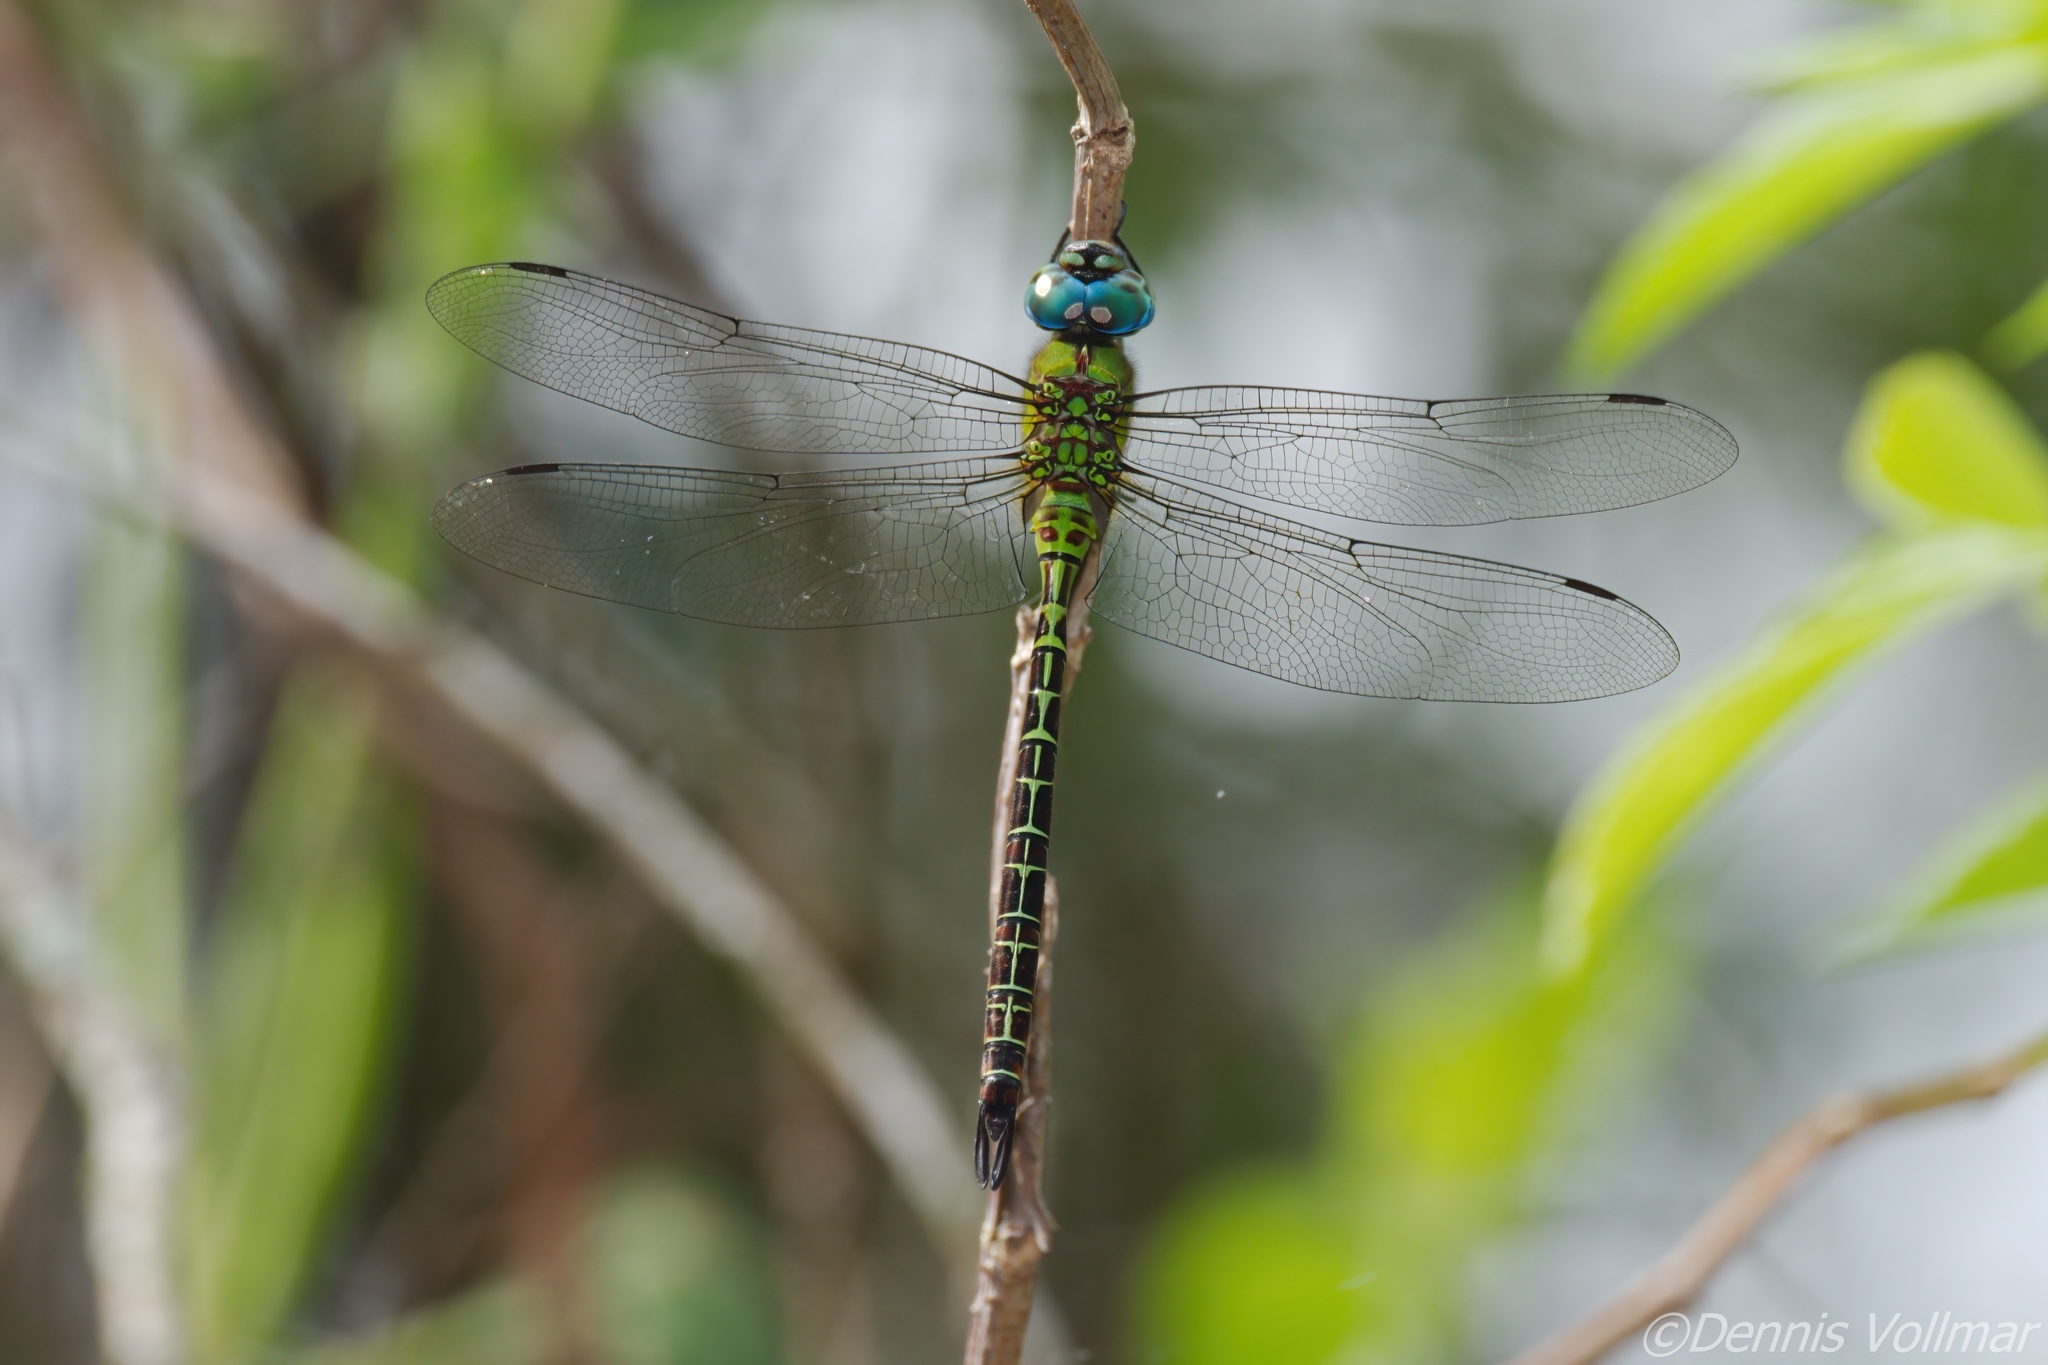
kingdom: Animalia
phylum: Arthropoda
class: Insecta
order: Odonata
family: Aeshnidae
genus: Coryphaeschna
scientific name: Coryphaeschna adnexa
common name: Blue-faced darner
